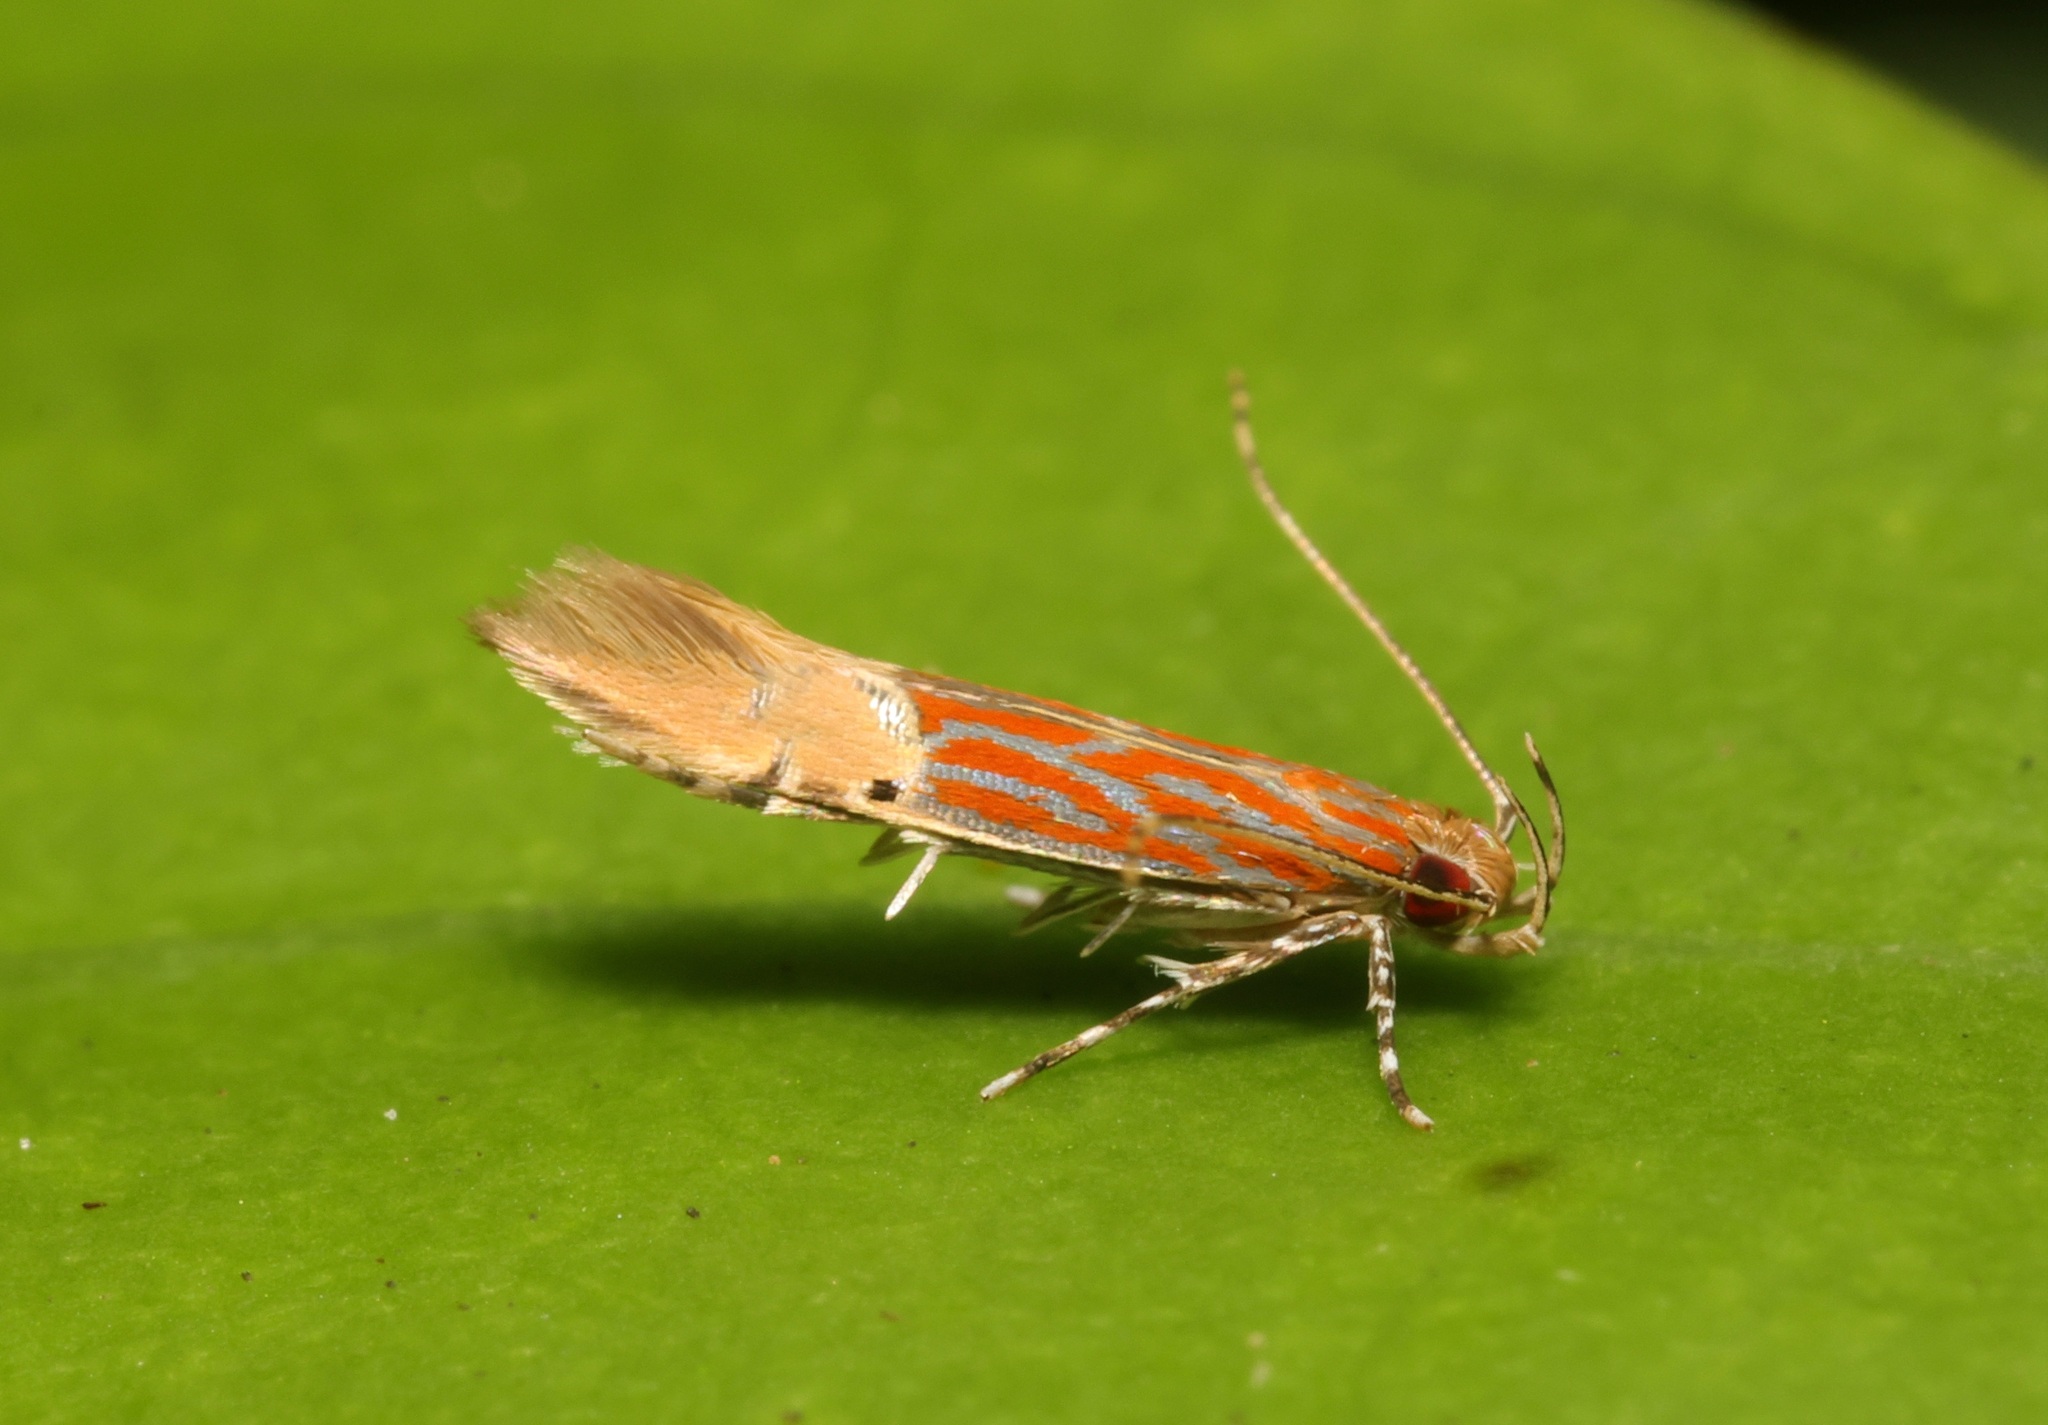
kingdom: Animalia
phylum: Arthropoda
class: Insecta
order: Lepidoptera
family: Cosmopterigidae
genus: Labdia
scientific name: Labdia semicoccinea
